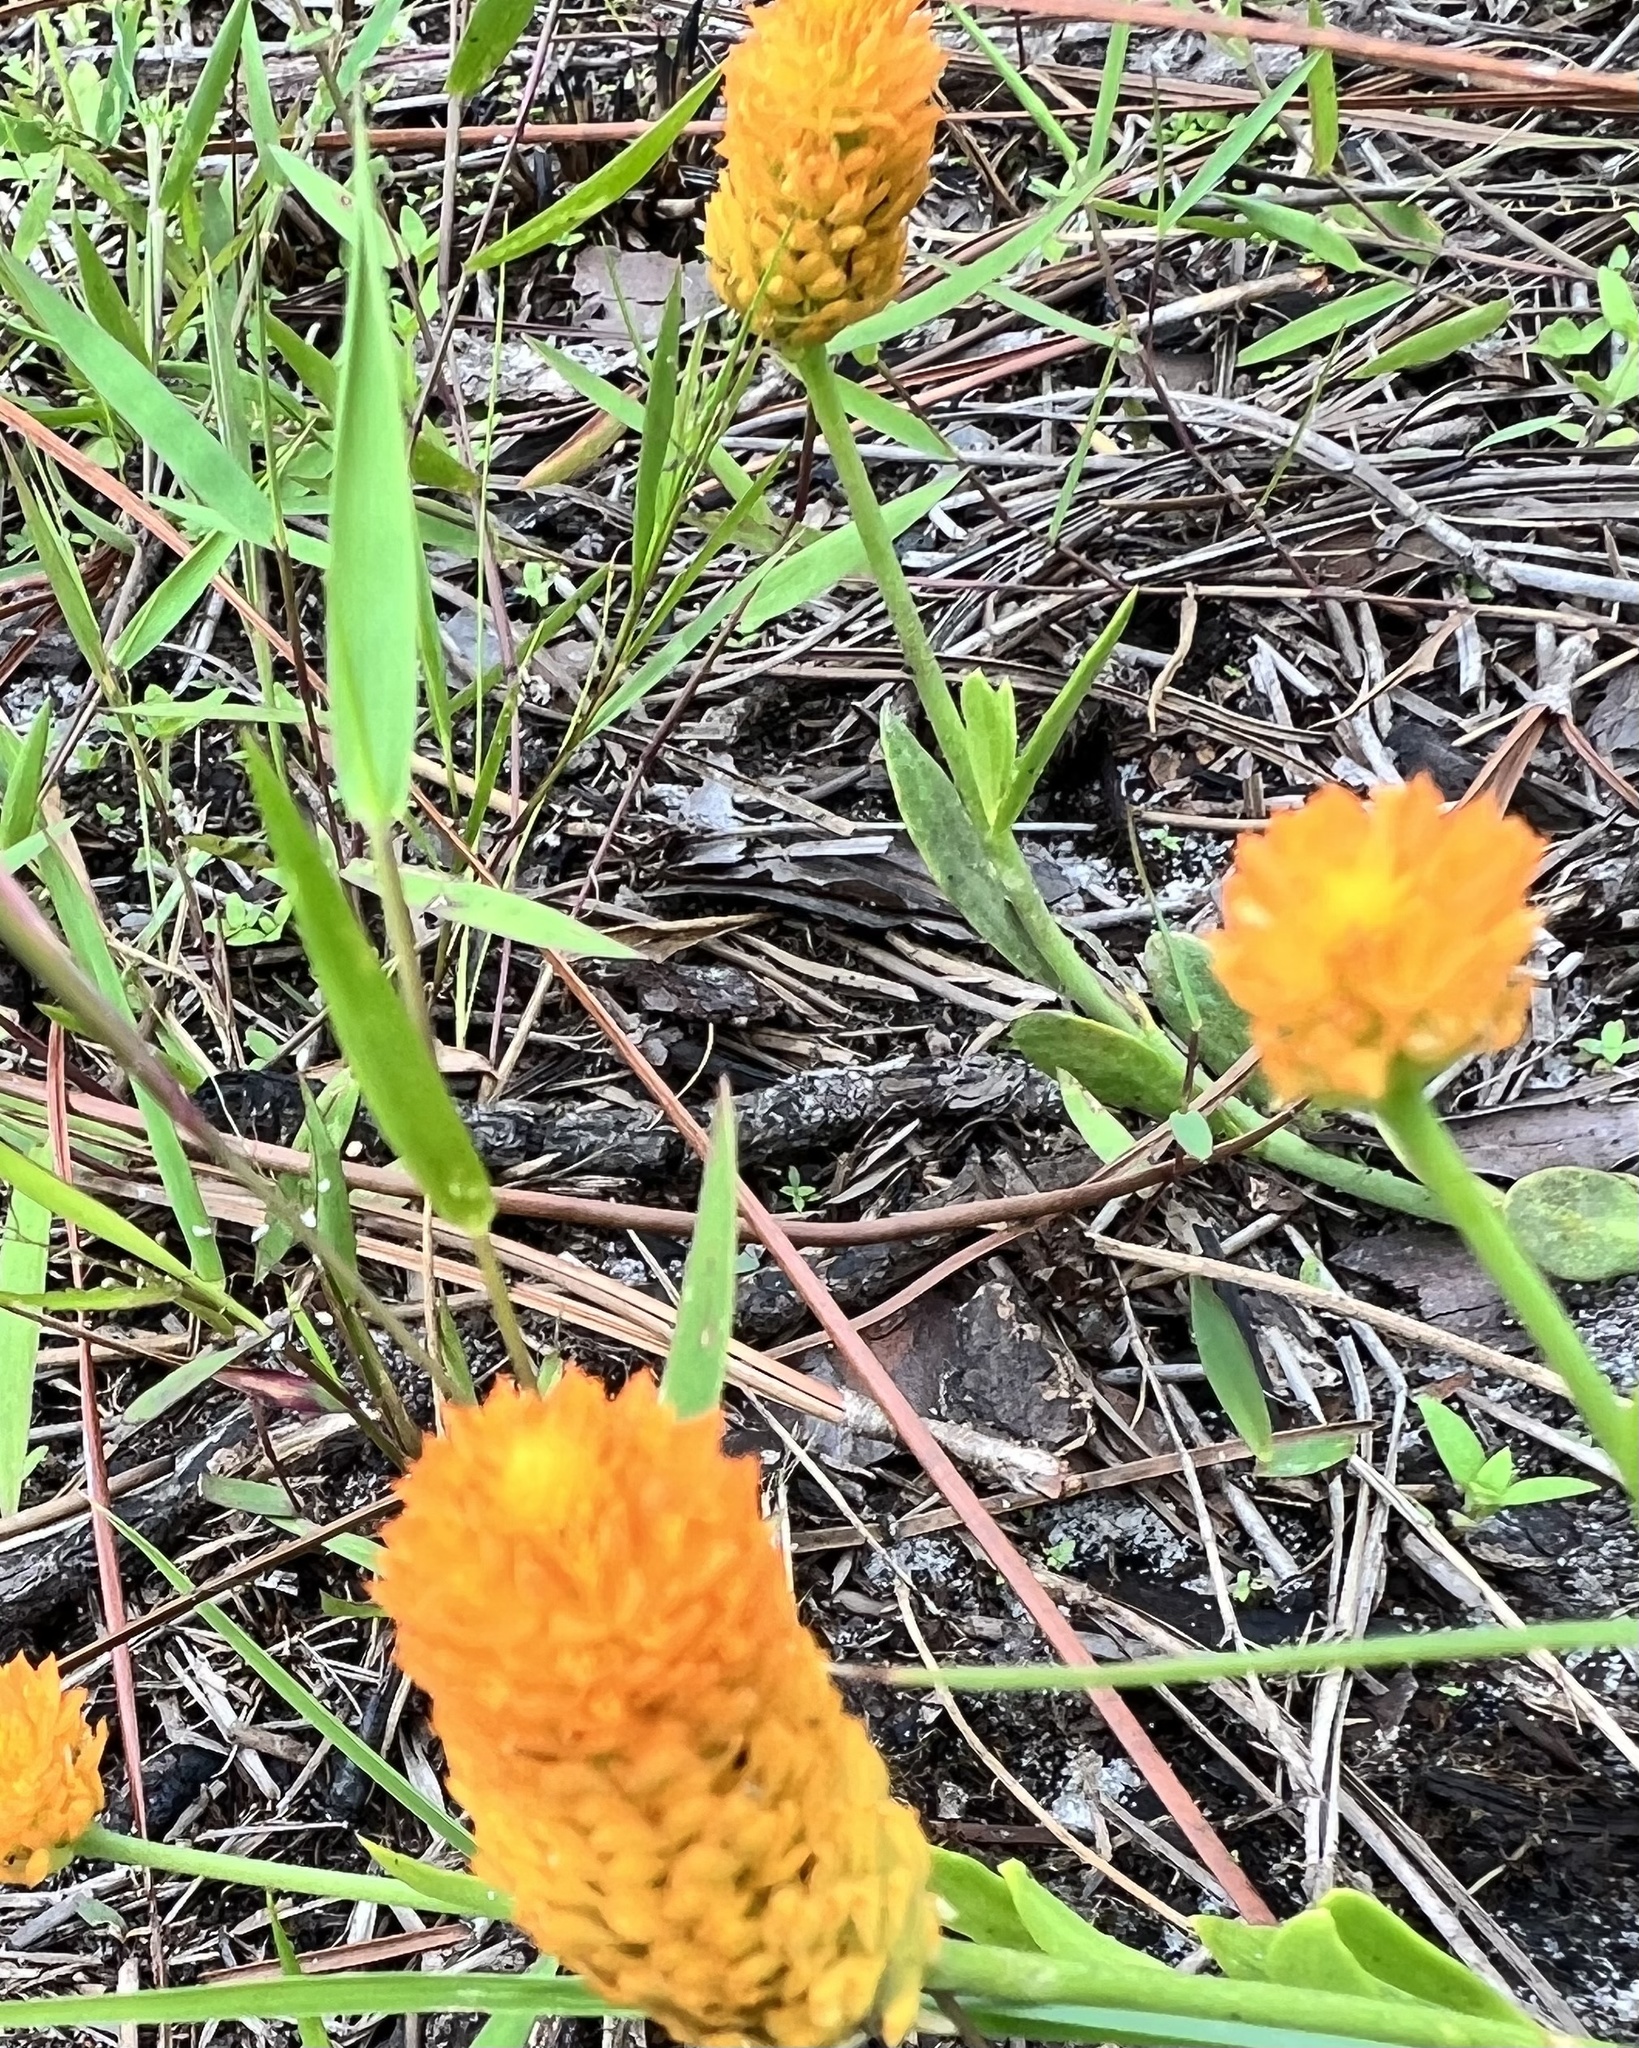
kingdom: Plantae
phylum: Tracheophyta
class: Magnoliopsida
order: Fabales
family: Polygalaceae
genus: Polygala
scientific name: Polygala lutea
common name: Orange milkwort
